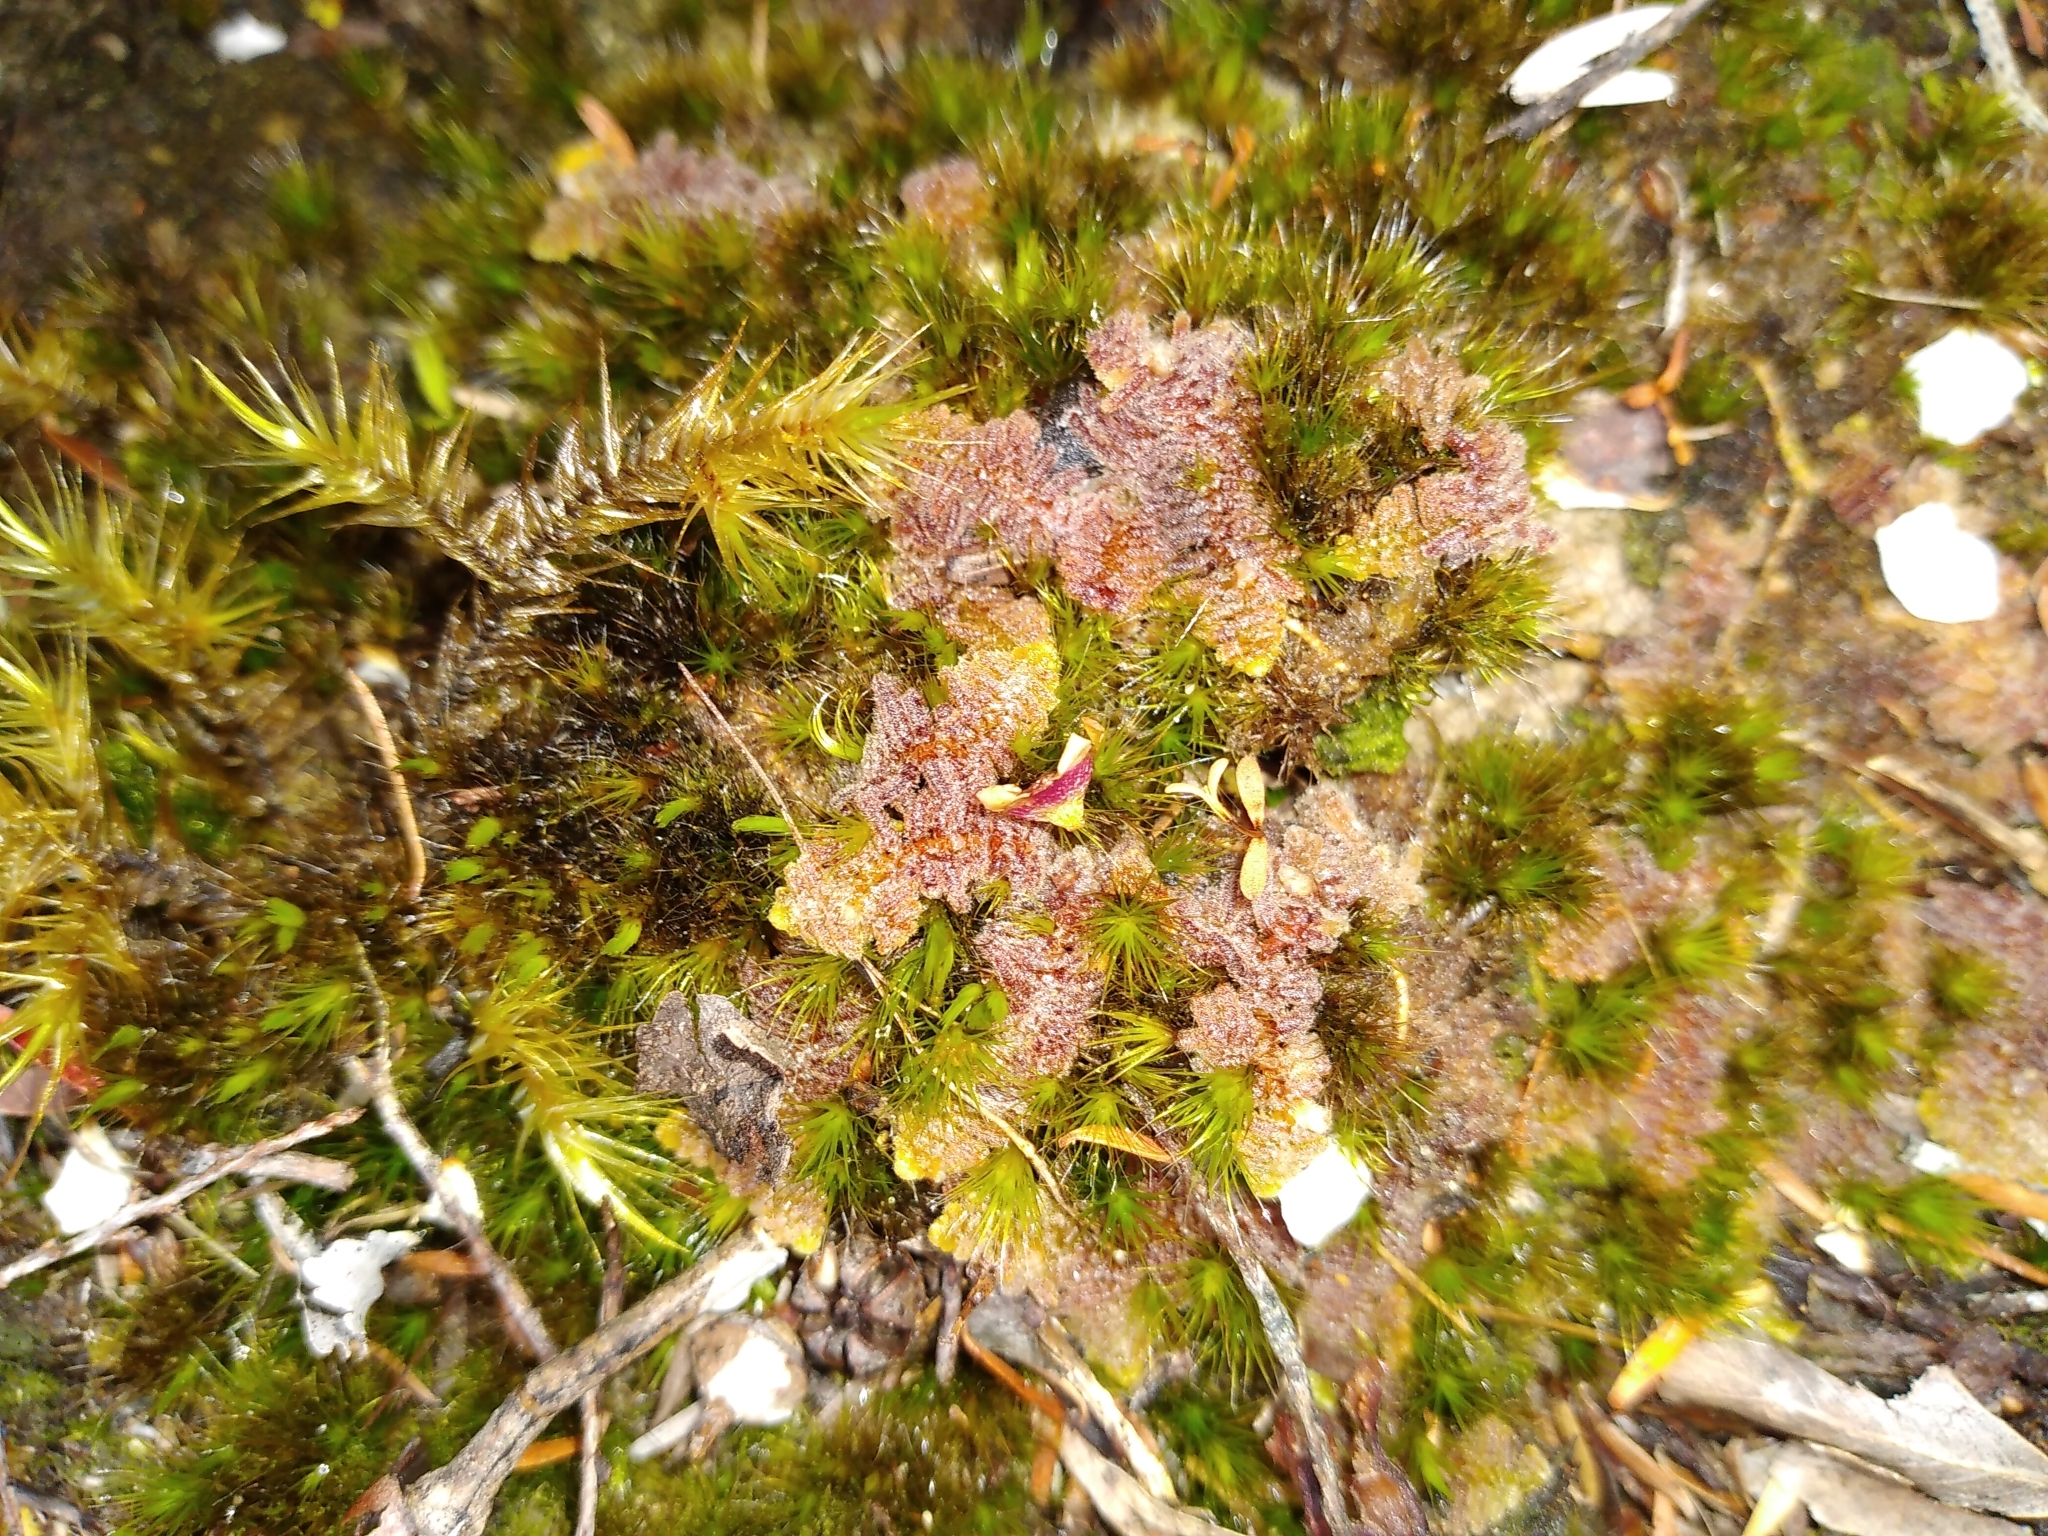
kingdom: Plantae
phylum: Marchantiophyta
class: Jungermanniopsida
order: Ptilidiales
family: Herzogianthaceae
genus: Herzogianthus
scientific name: Herzogianthus vaginatus
